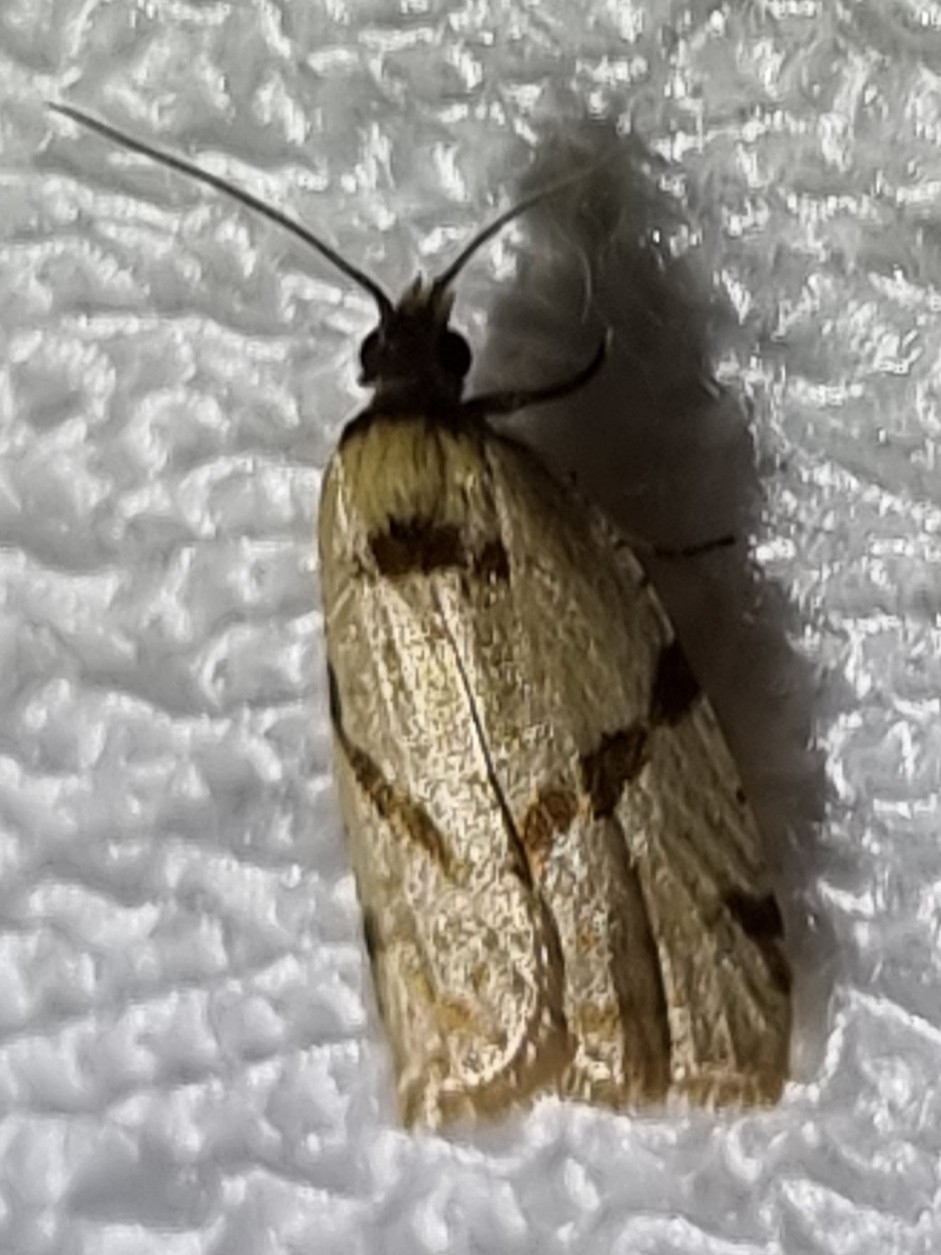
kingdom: Animalia
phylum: Arthropoda
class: Insecta
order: Lepidoptera
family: Tortricidae
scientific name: Tortricidae
